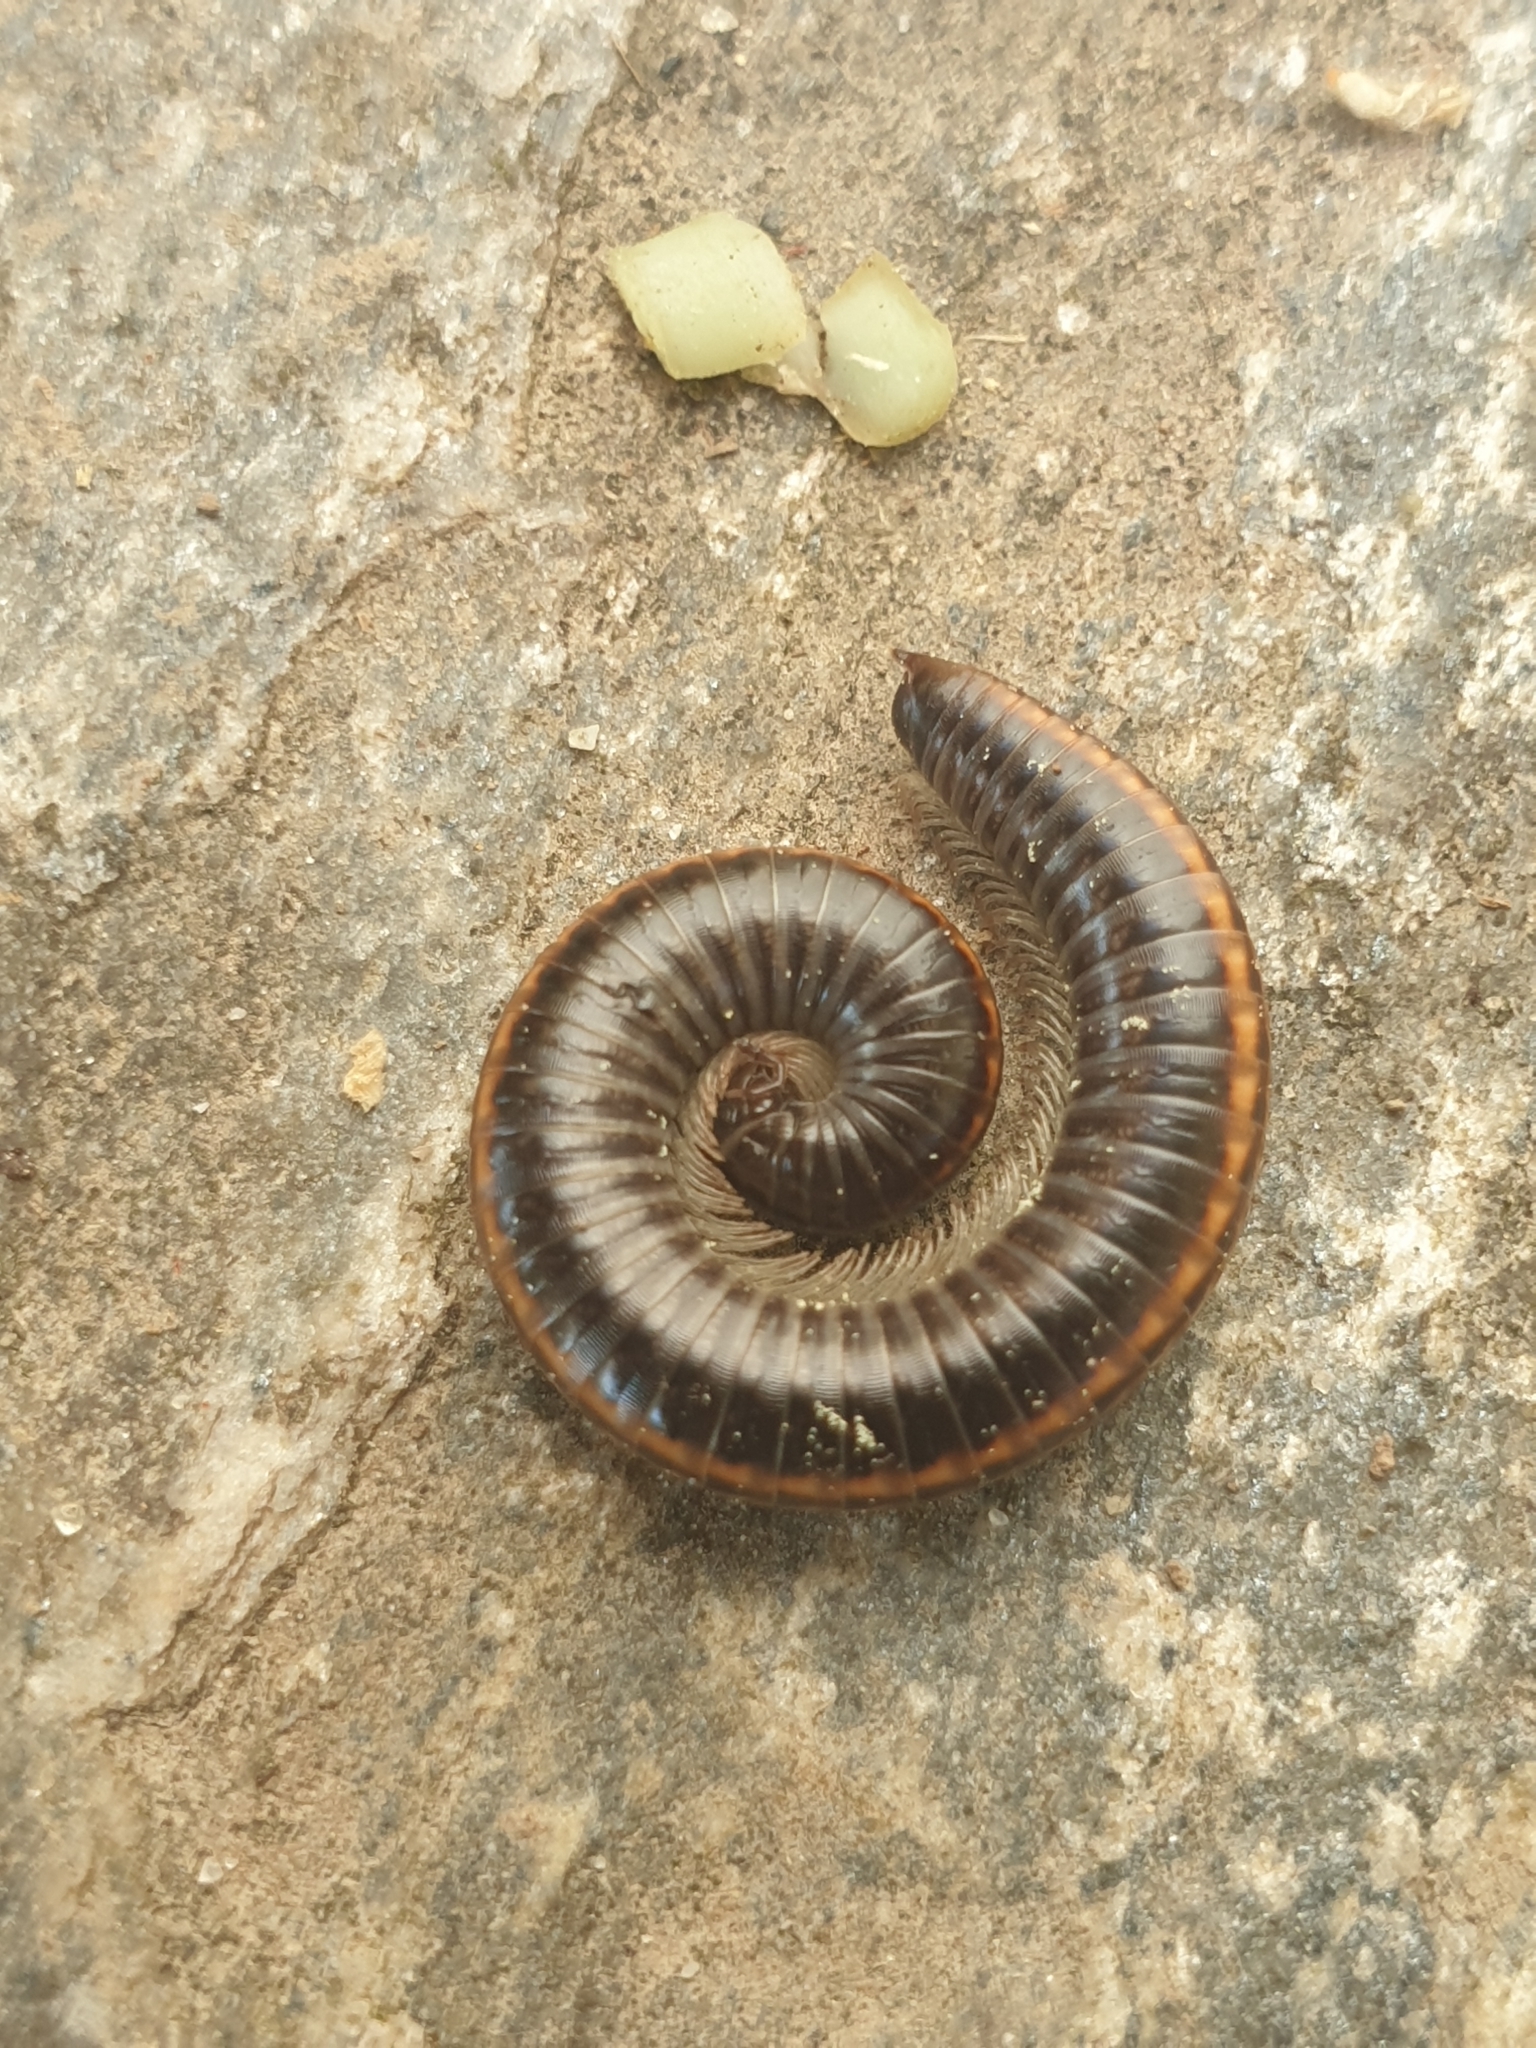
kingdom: Animalia
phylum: Arthropoda
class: Diplopoda
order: Julida
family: Julidae
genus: Ommatoiulus
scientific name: Ommatoiulus sabulosus
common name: Striped millipede
